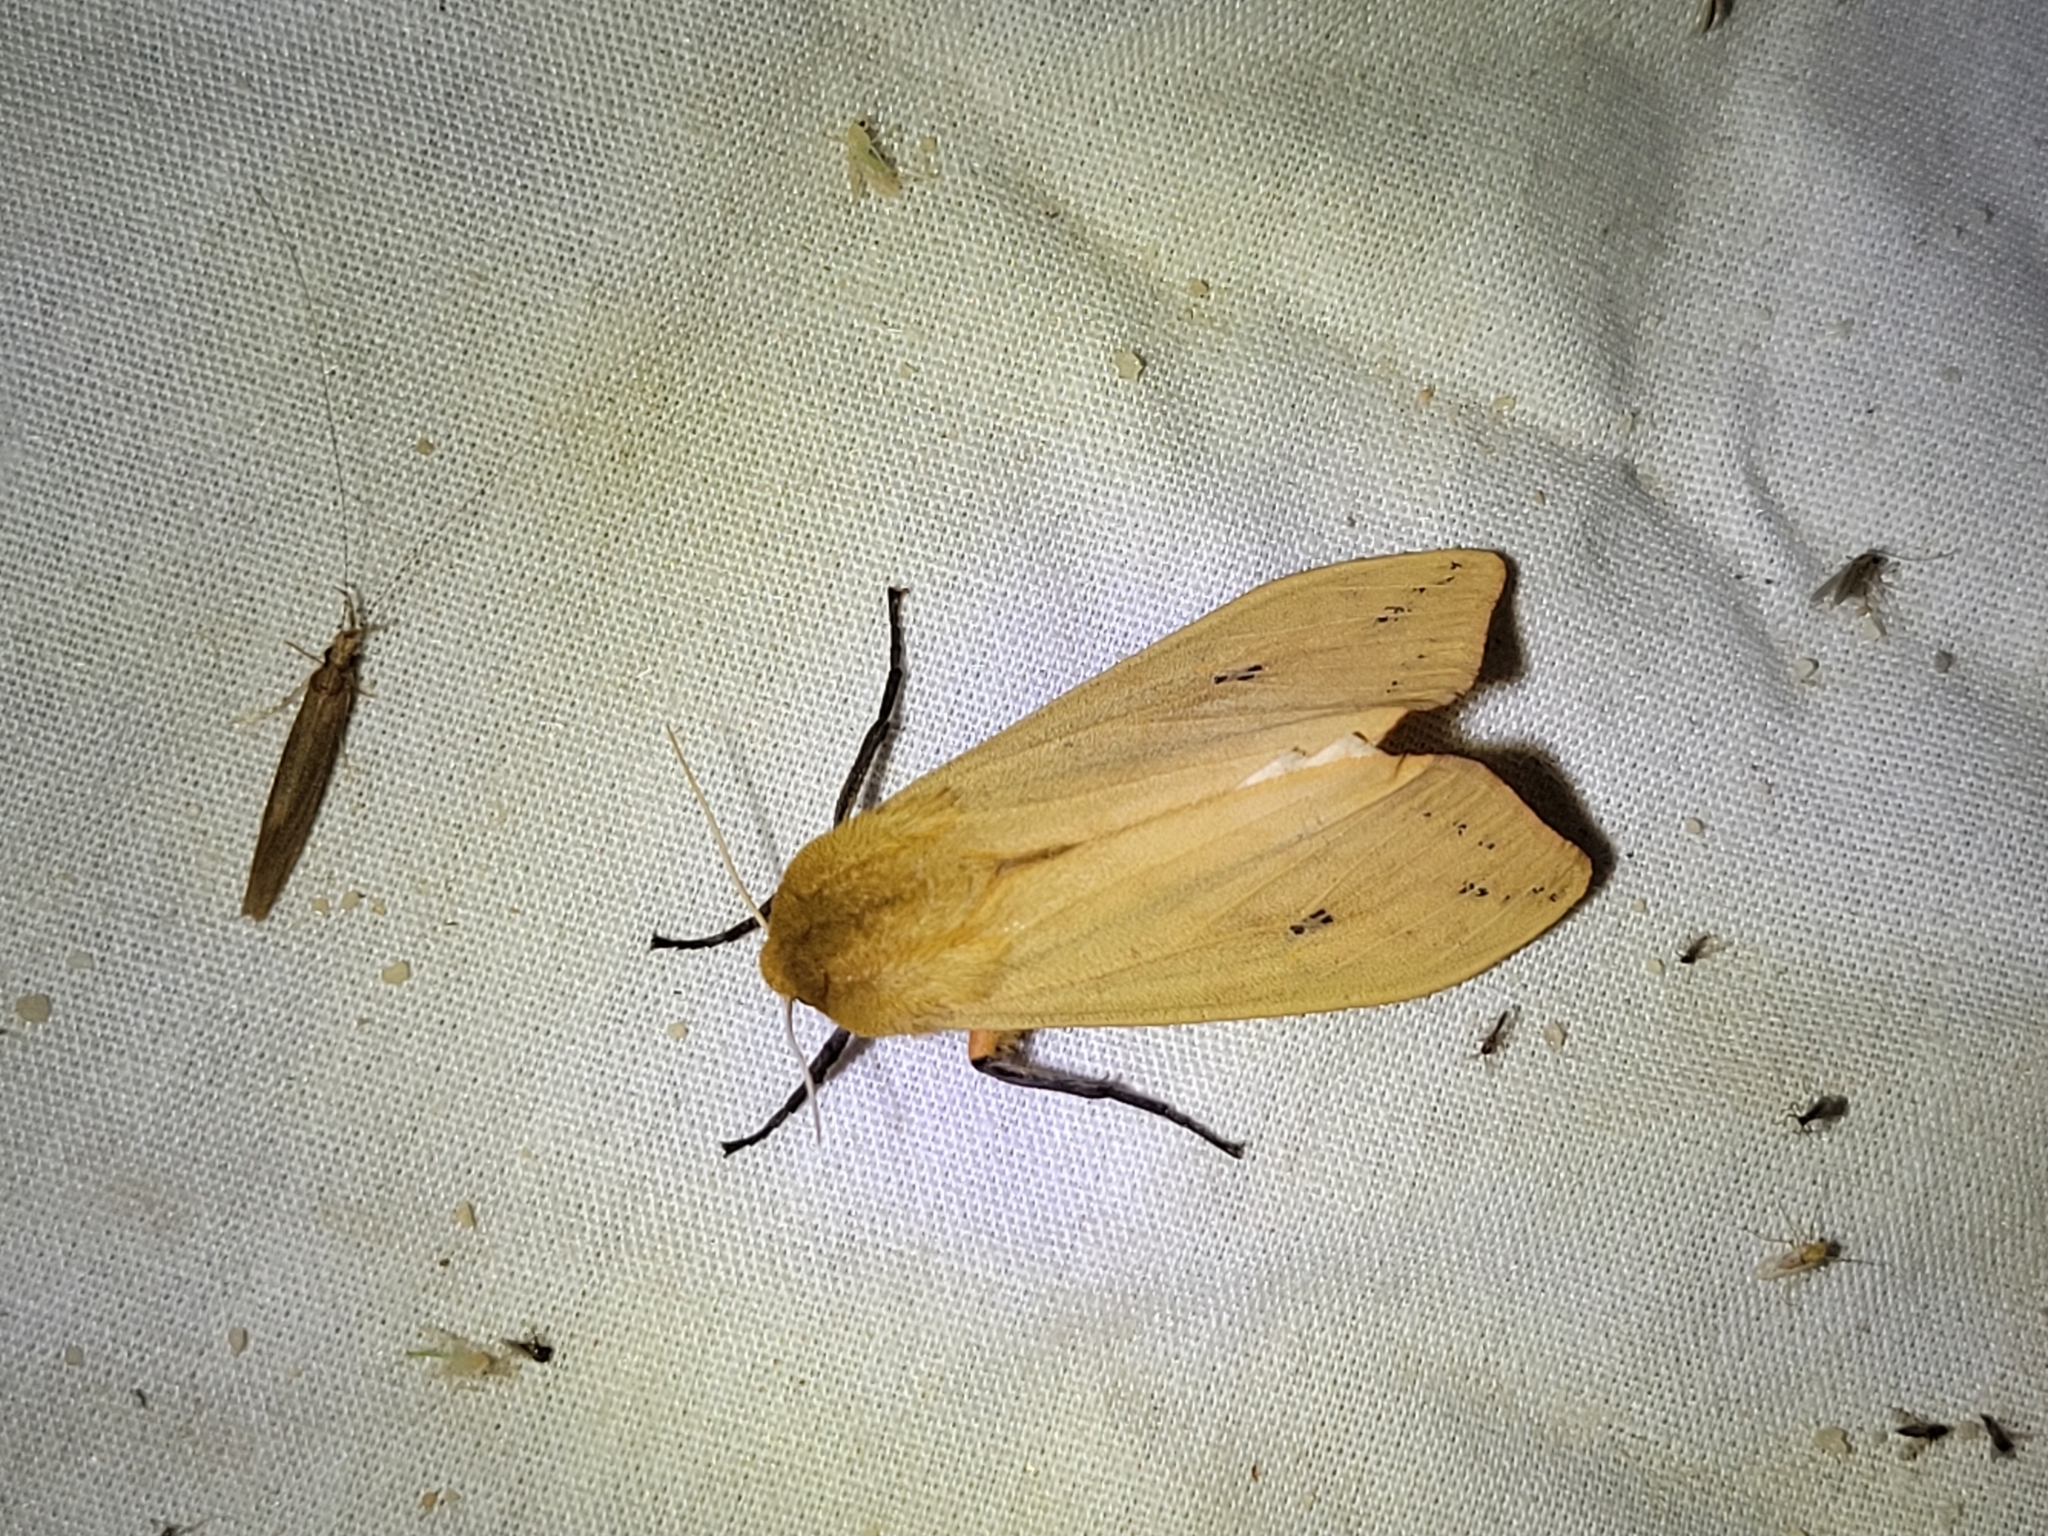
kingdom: Animalia
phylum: Arthropoda
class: Insecta
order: Lepidoptera
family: Erebidae
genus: Pyrrharctia
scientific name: Pyrrharctia isabella
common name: Isabella tiger moth
